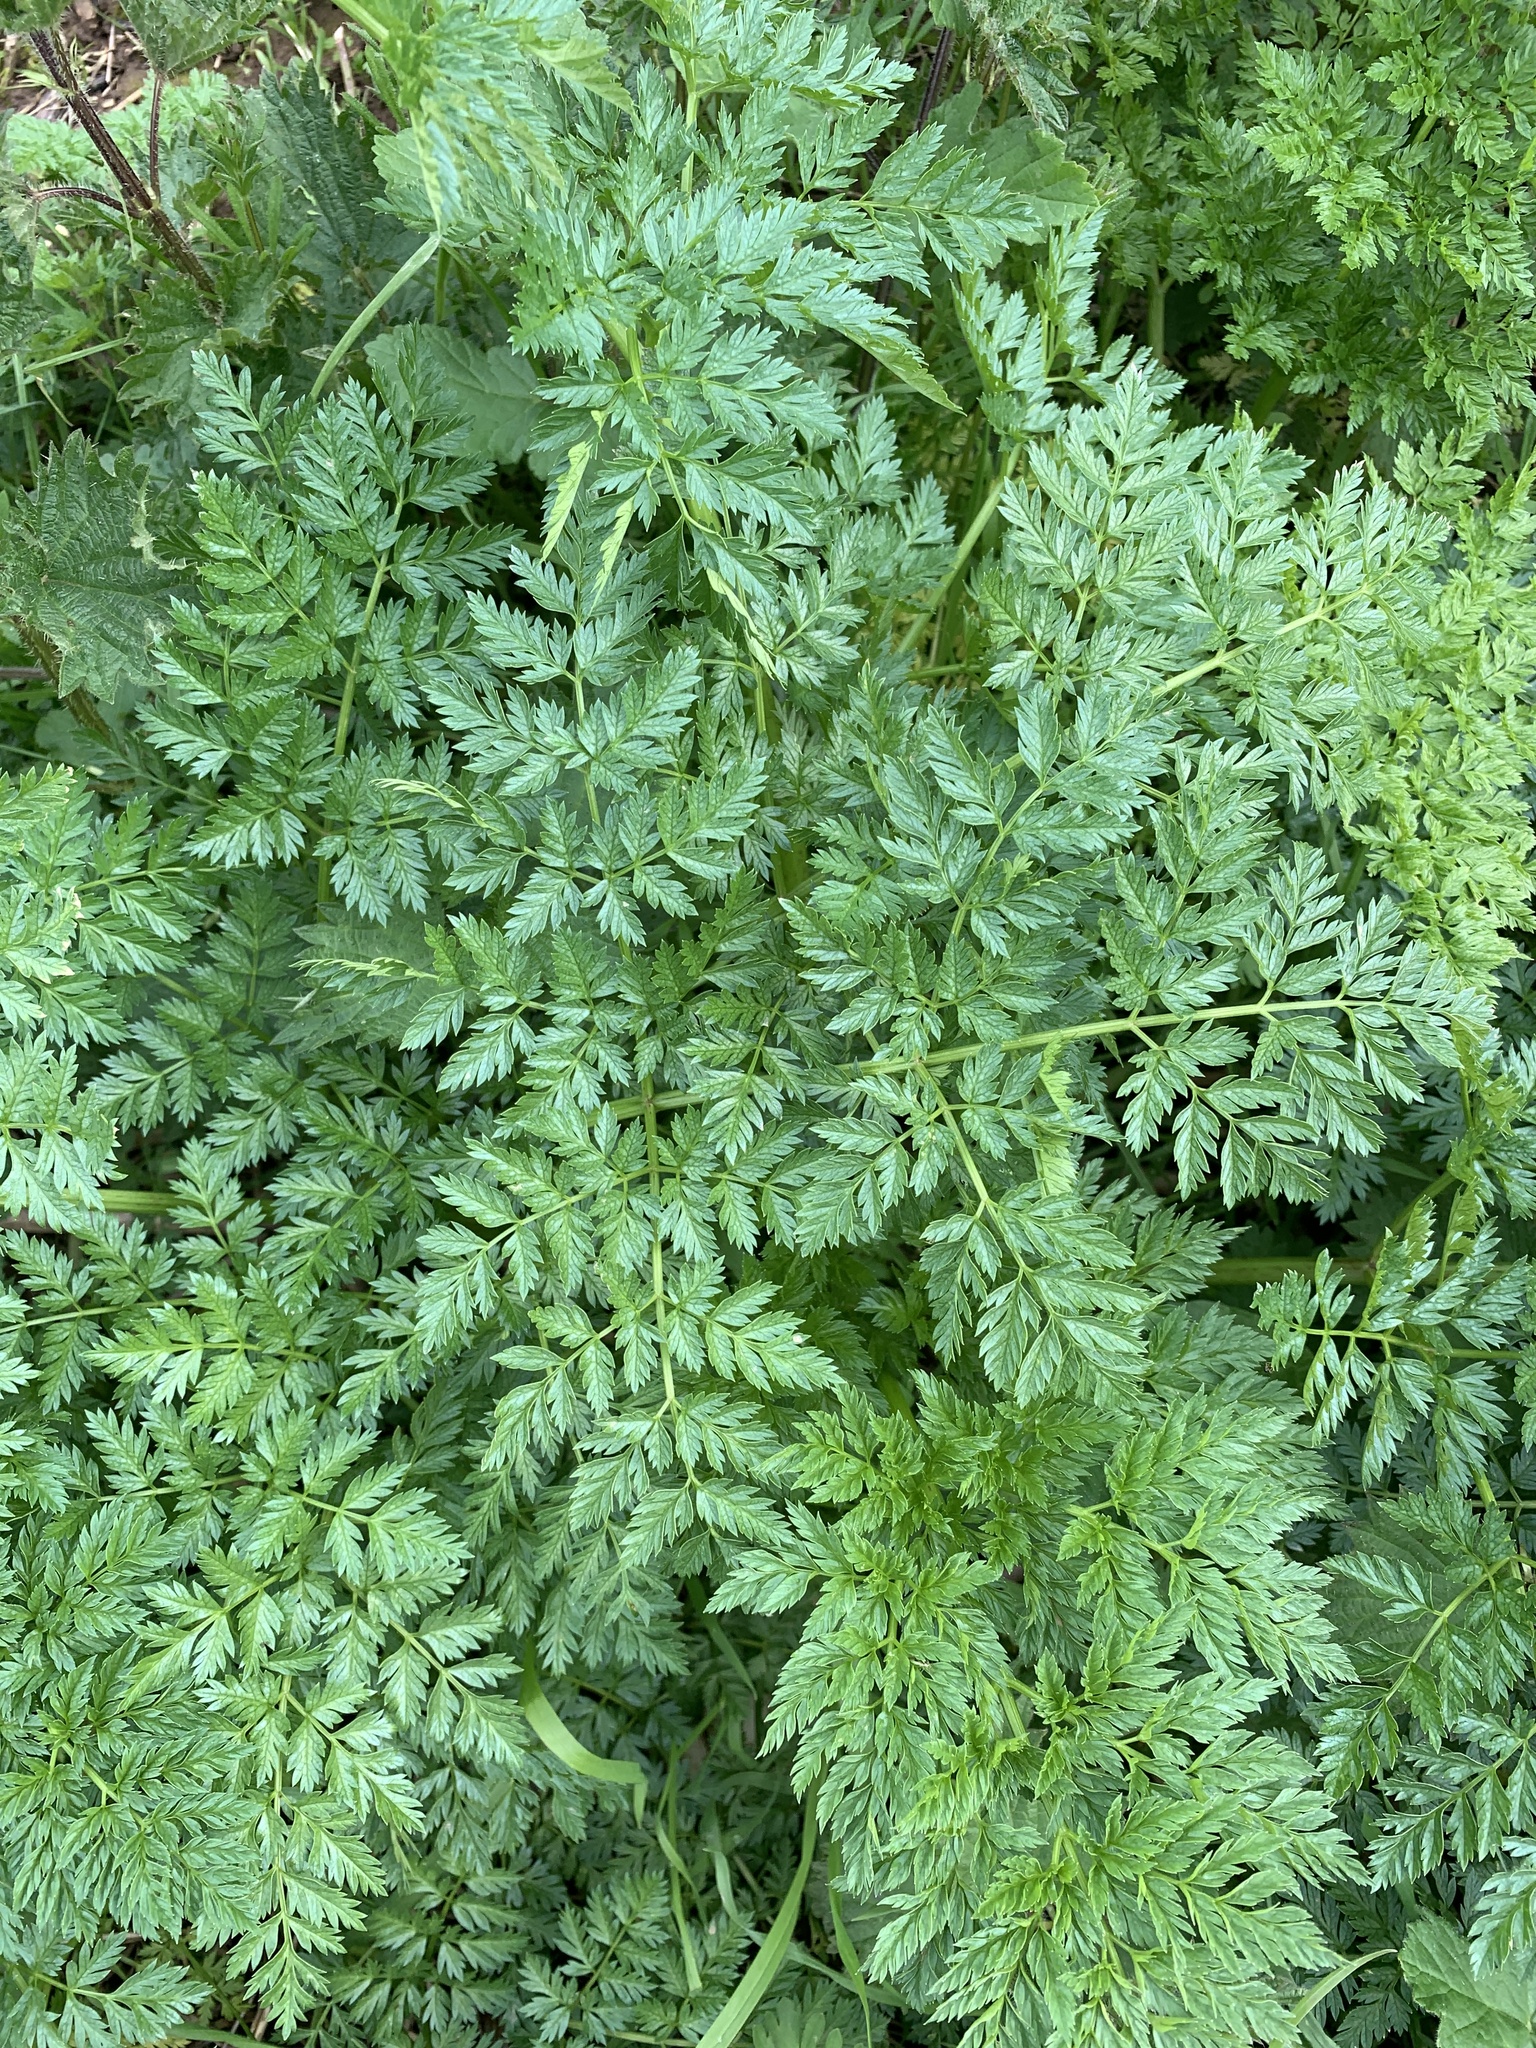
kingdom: Plantae
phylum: Tracheophyta
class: Magnoliopsida
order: Apiales
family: Apiaceae
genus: Conium
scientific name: Conium maculatum
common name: Hemlock
